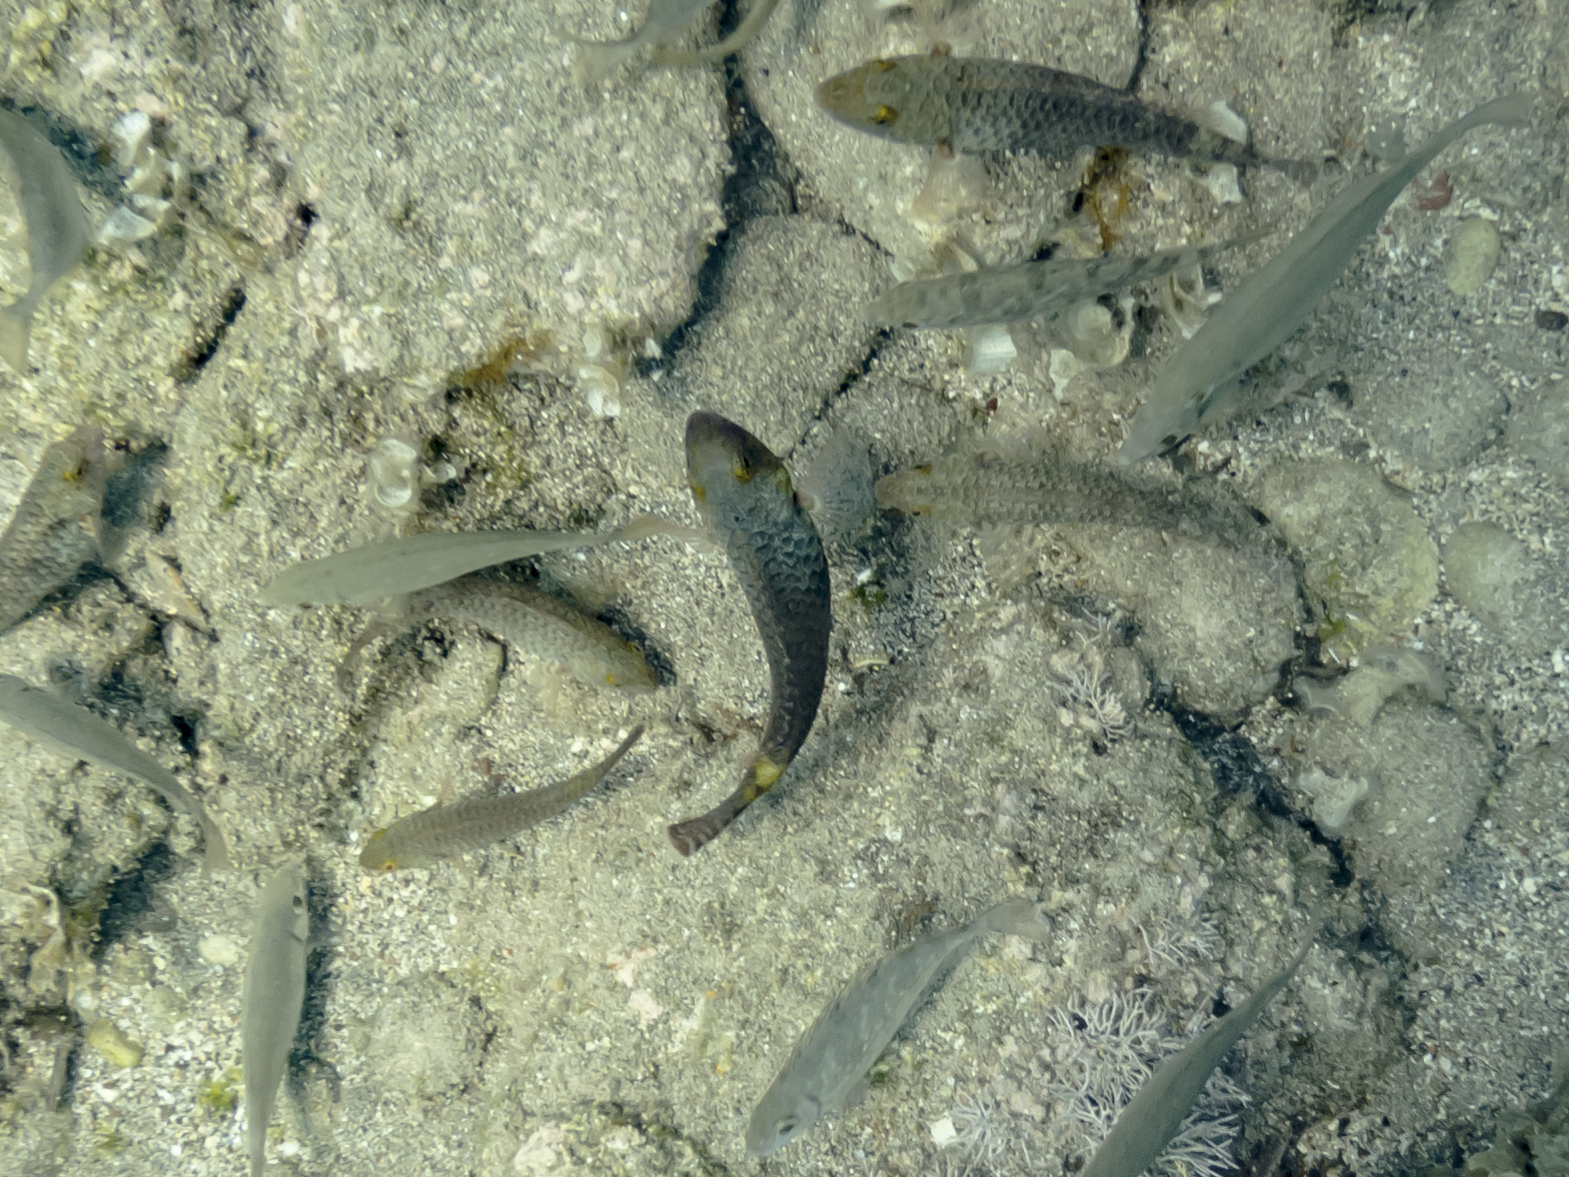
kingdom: Animalia
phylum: Chordata
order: Perciformes
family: Scaridae
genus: Sparisoma
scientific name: Sparisoma cretense
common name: Parrotfish
